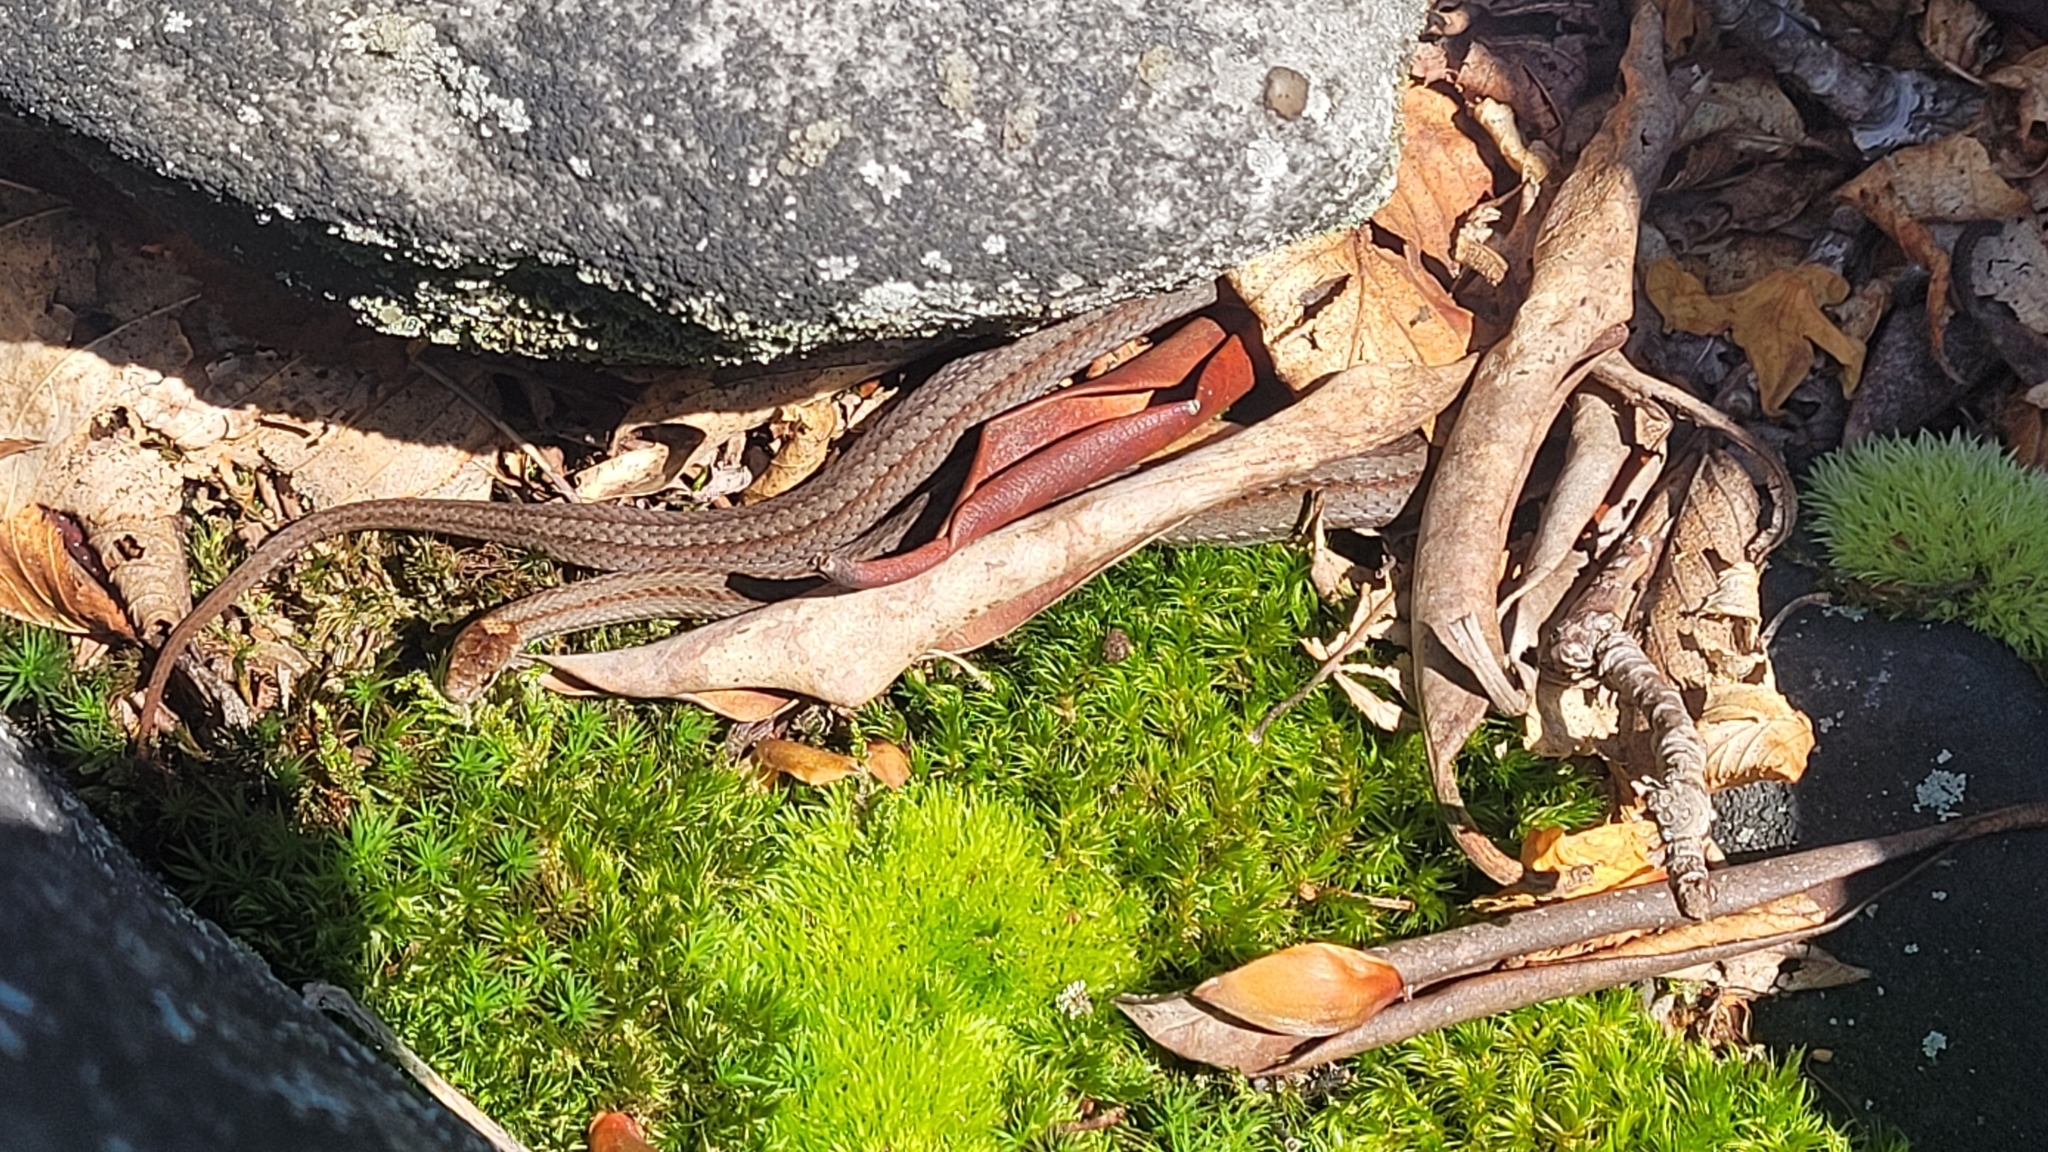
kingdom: Animalia
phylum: Chordata
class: Squamata
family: Colubridae
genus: Storeria
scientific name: Storeria occipitomaculata
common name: Redbelly snake
